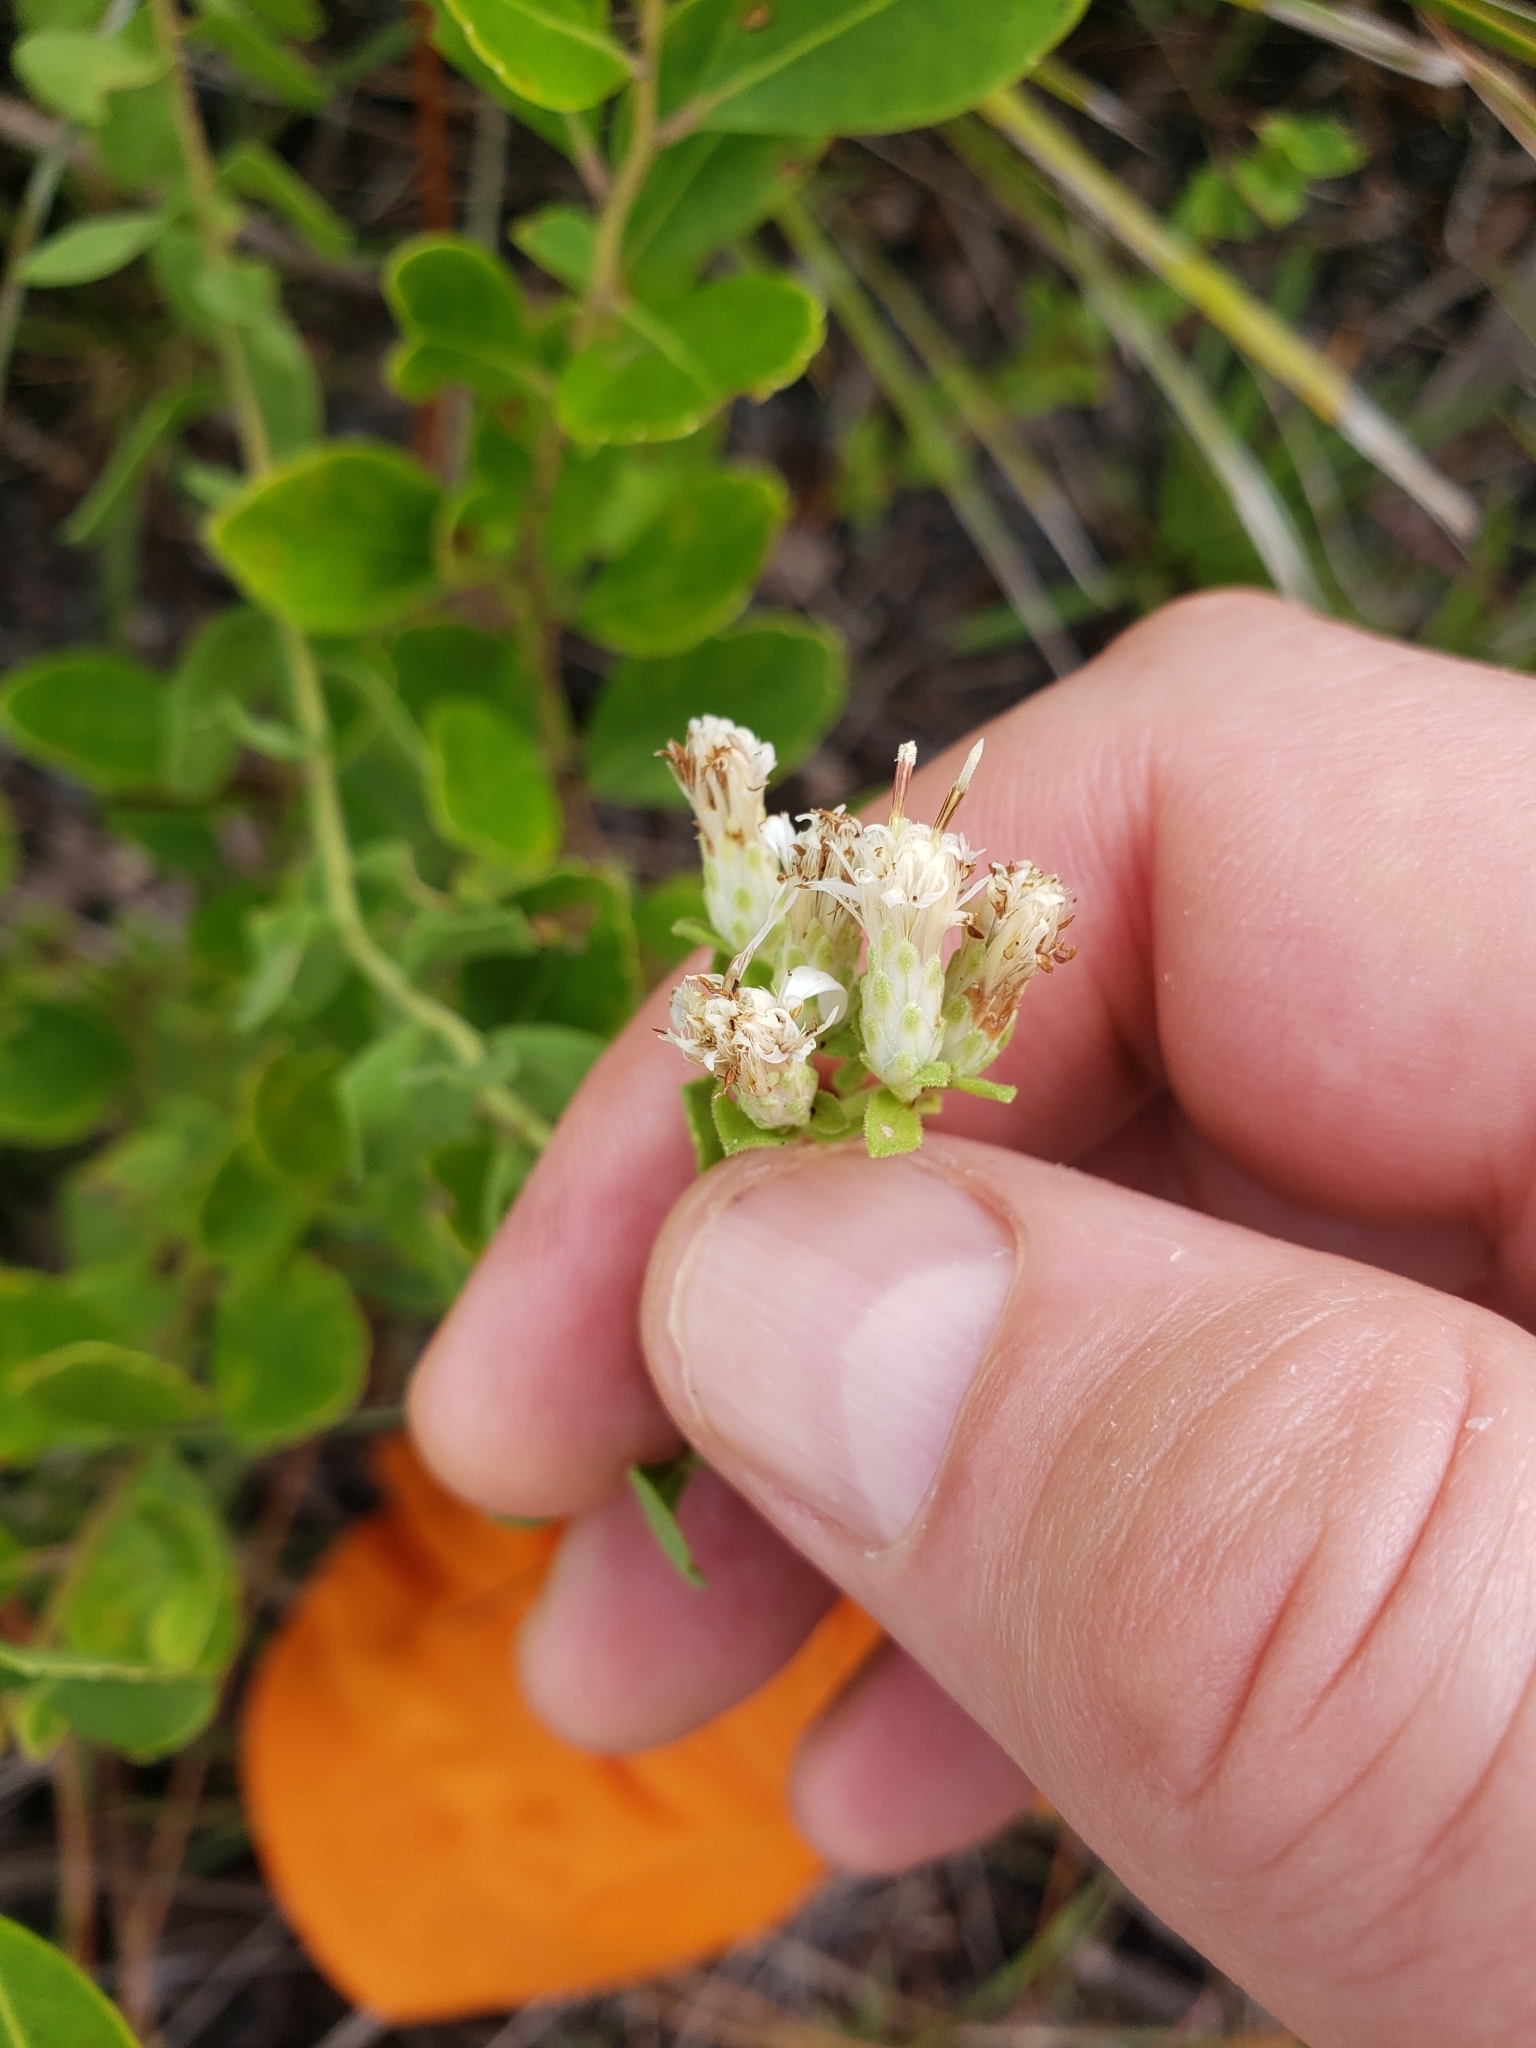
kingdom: Plantae
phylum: Tracheophyta
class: Magnoliopsida
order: Asterales
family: Asteraceae
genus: Sericocarpus
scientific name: Sericocarpus tortifolius
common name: Dixie aster
